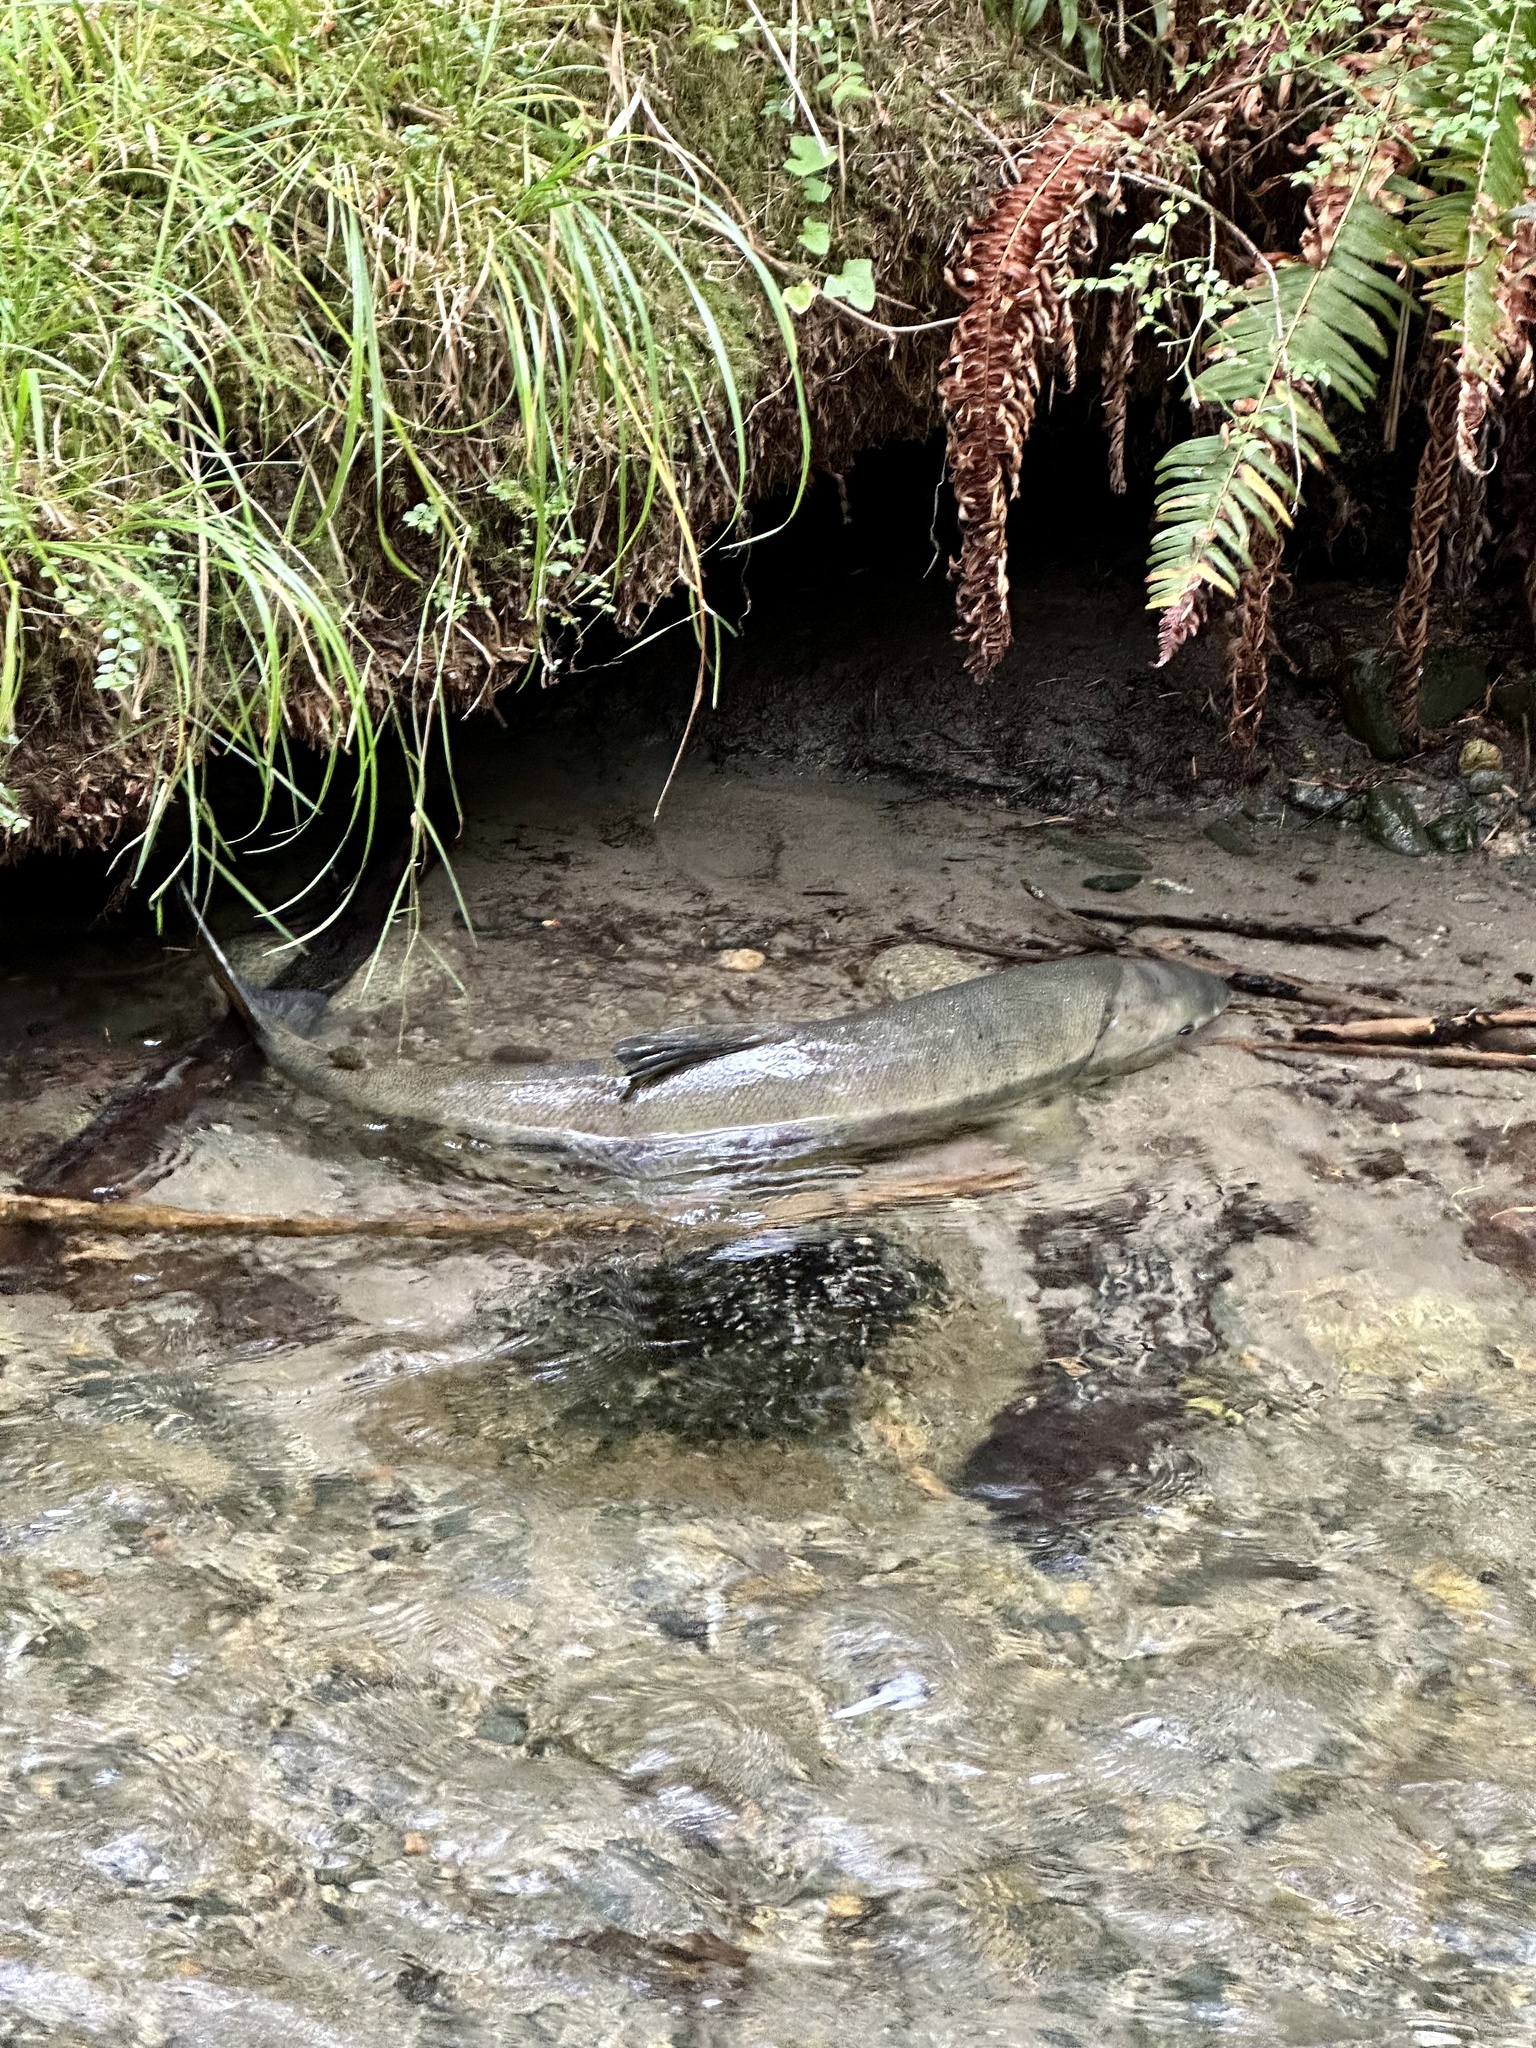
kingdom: Animalia
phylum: Chordata
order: Salmoniformes
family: Salmonidae
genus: Oncorhynchus
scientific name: Oncorhynchus keta
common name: Chum salmon
